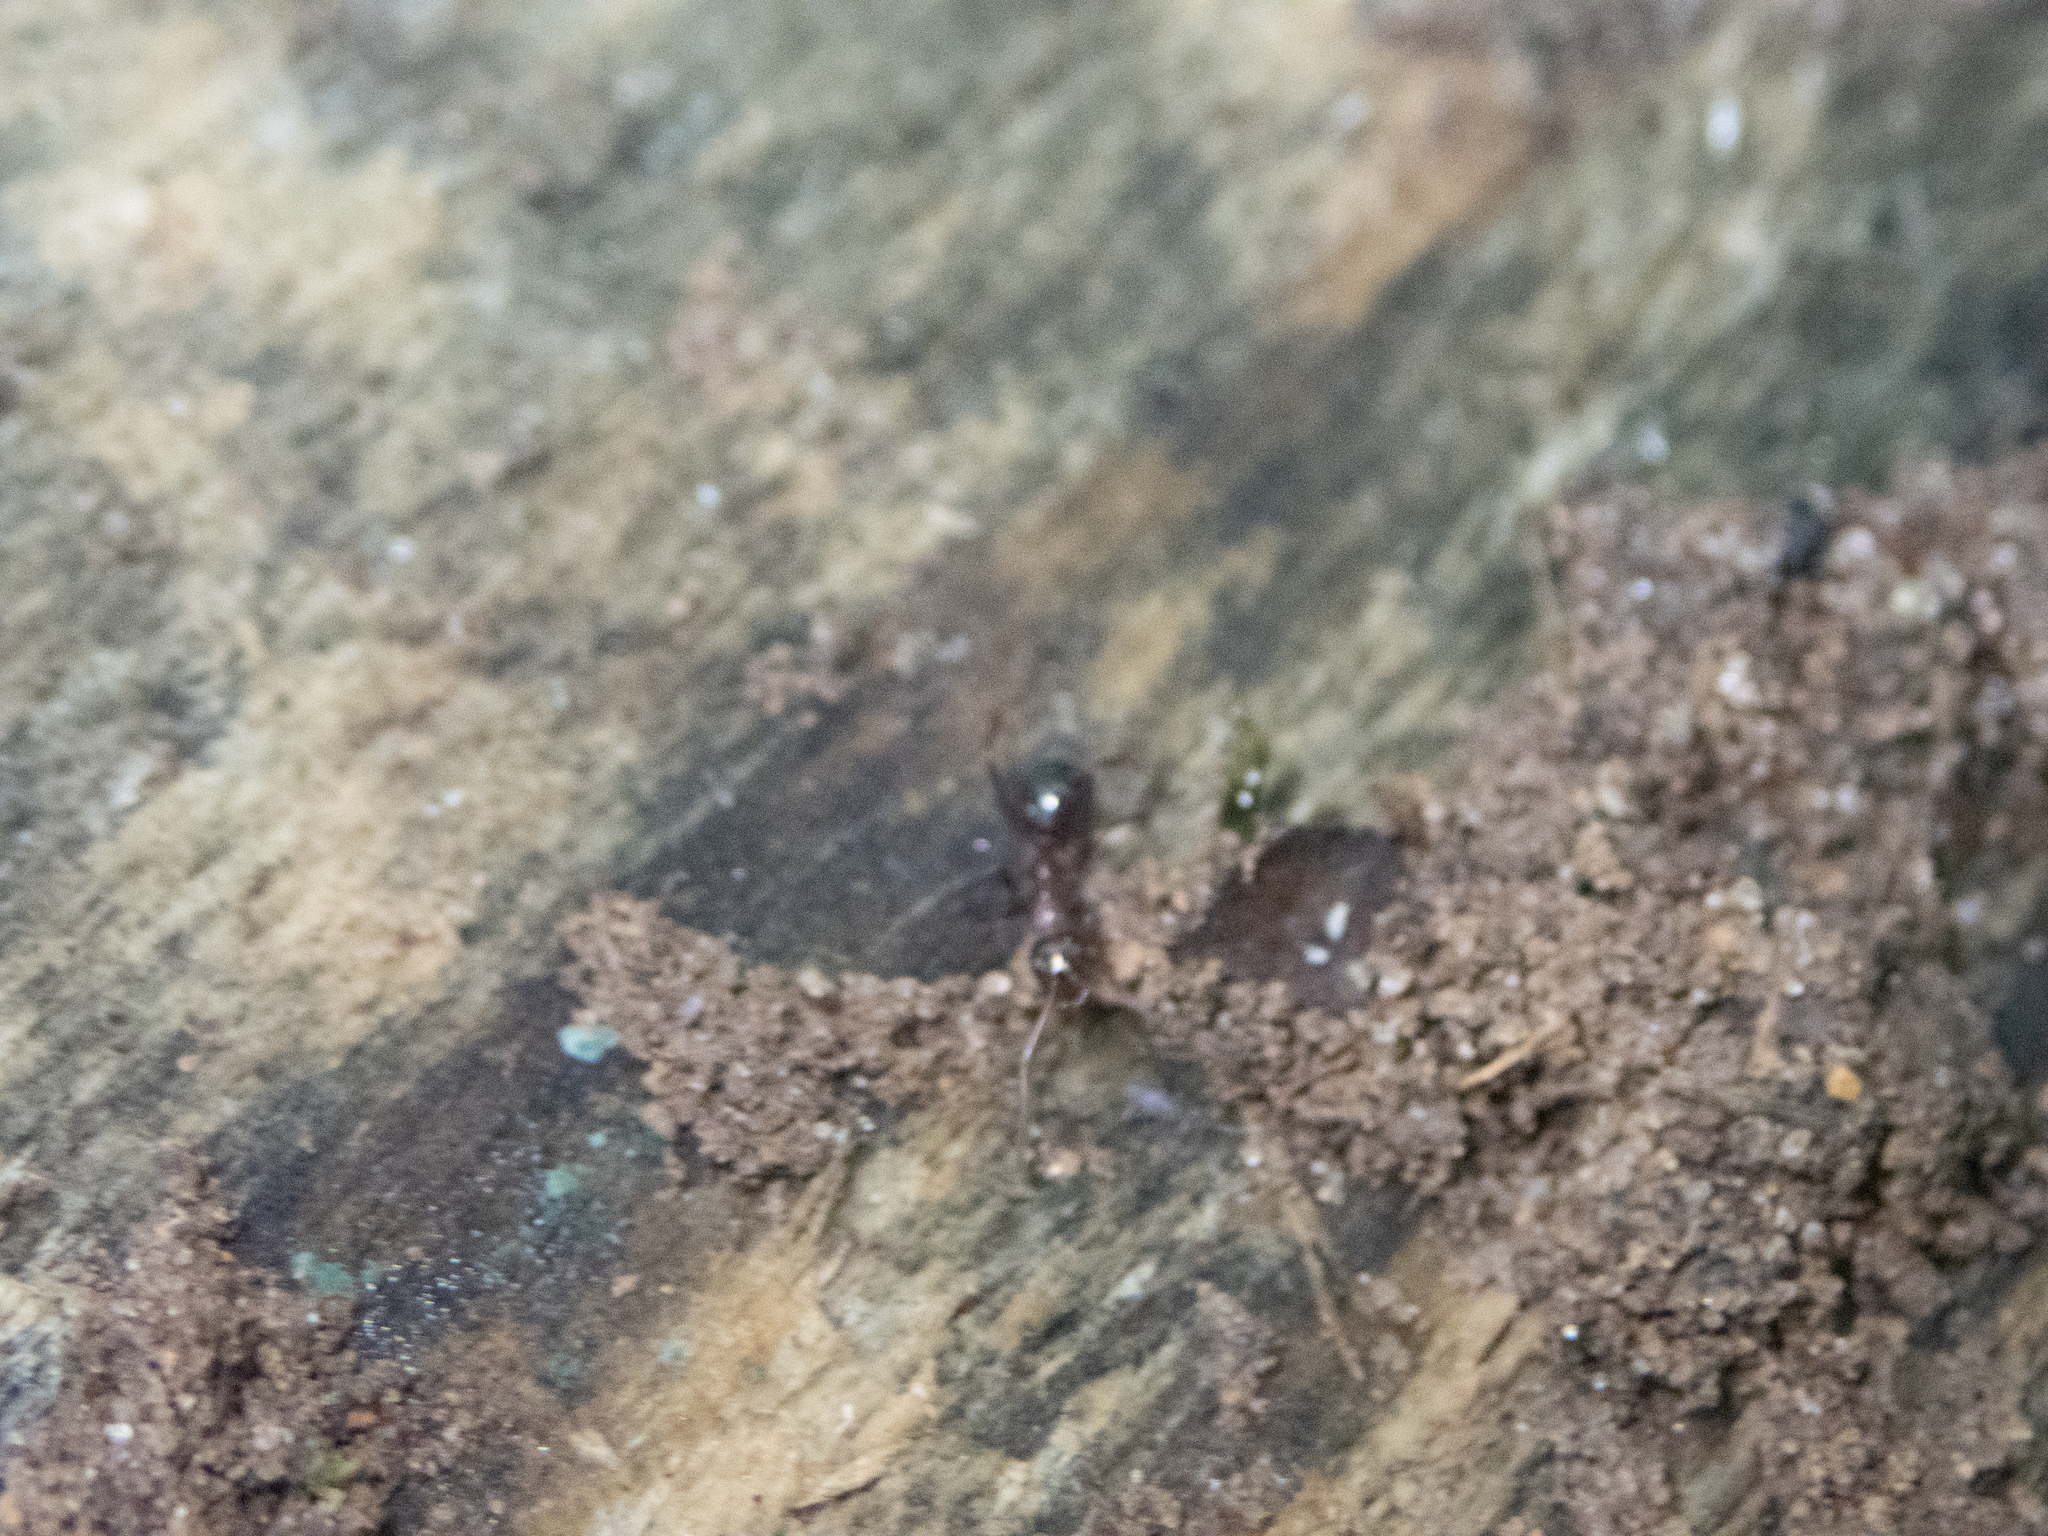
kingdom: Animalia
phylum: Arthropoda
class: Insecta
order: Hymenoptera
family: Formicidae
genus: Formica
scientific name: Formica pallidefulva
